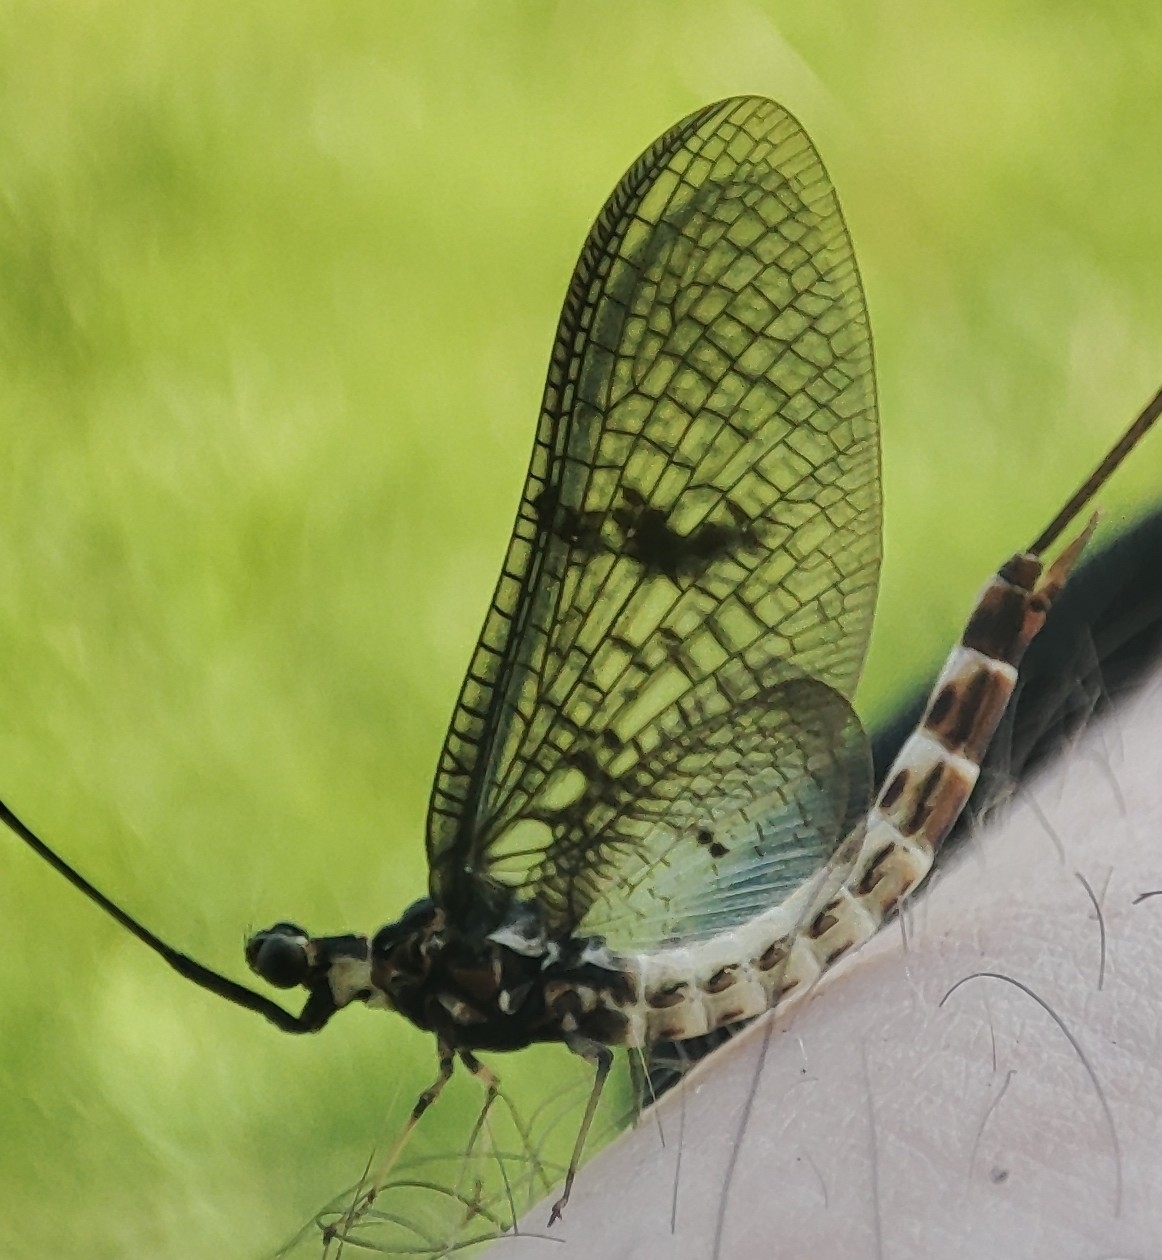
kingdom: Animalia
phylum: Arthropoda
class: Insecta
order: Ephemeroptera
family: Ephemeridae
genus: Ephemera
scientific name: Ephemera danica
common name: Green dun
